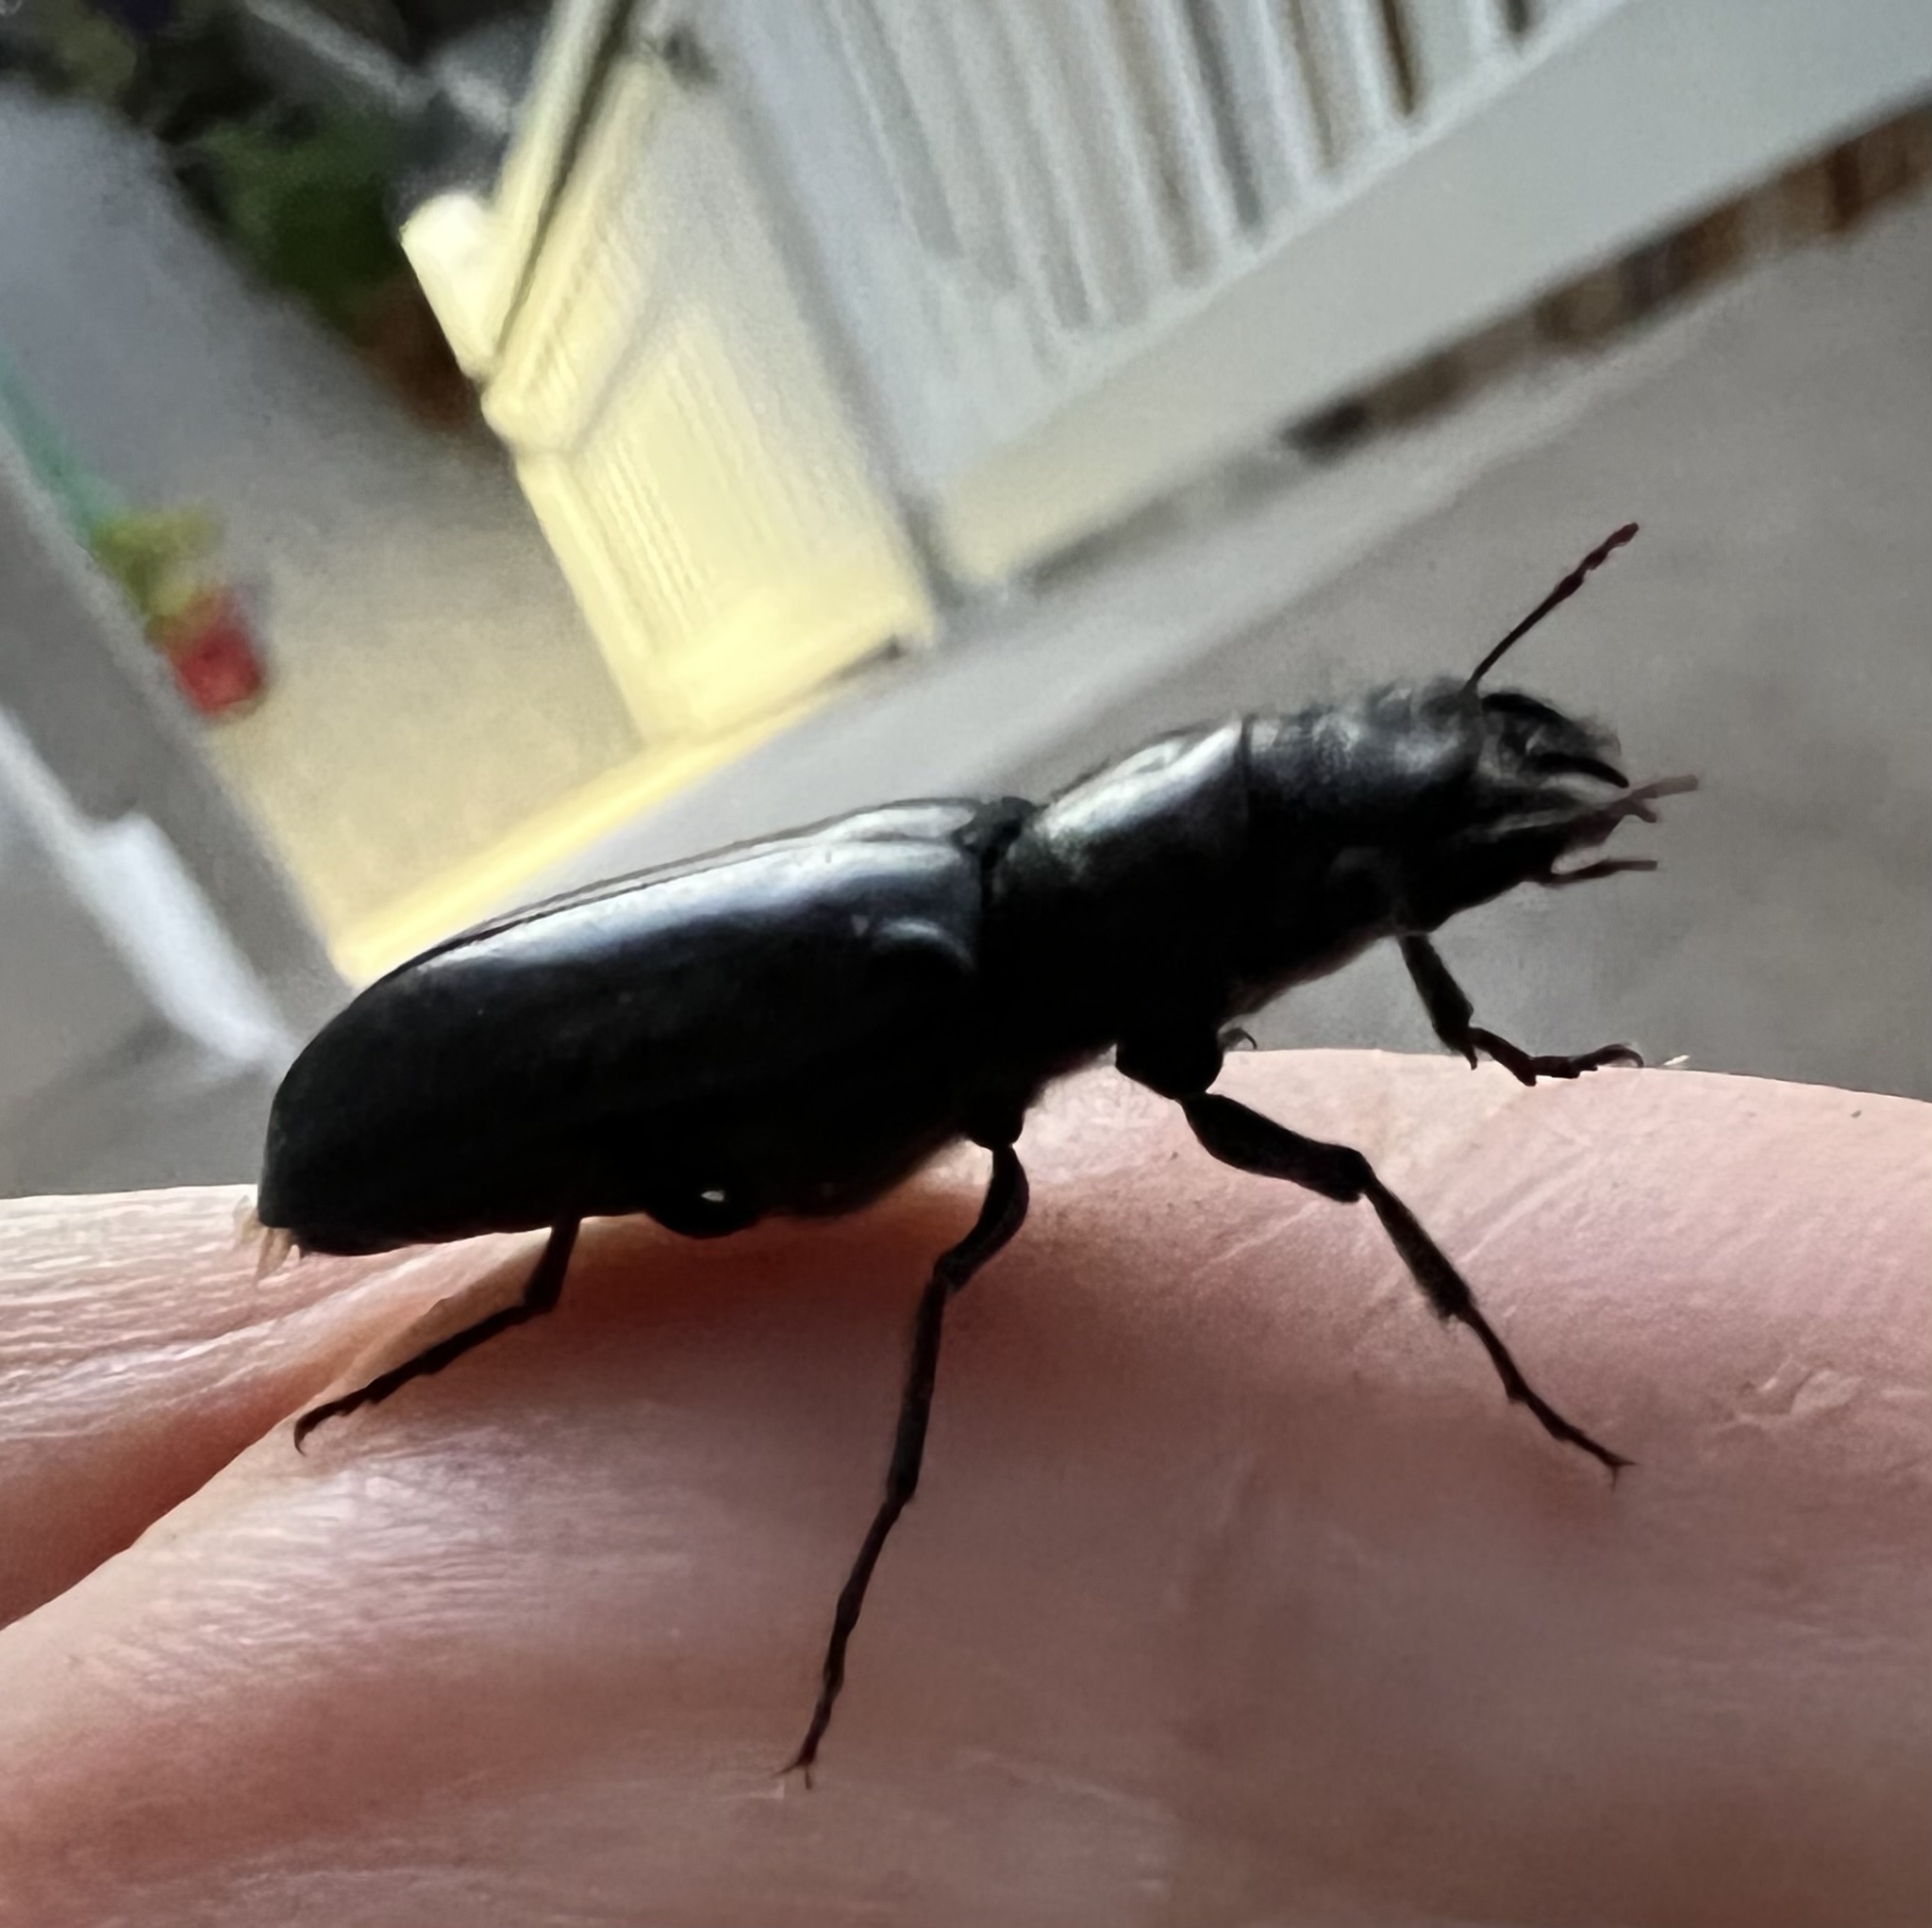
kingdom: Animalia
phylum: Arthropoda
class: Insecta
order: Coleoptera
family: Bostrichidae
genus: Polycaon
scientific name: Polycaon stoutii
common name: Powderpost beetle
